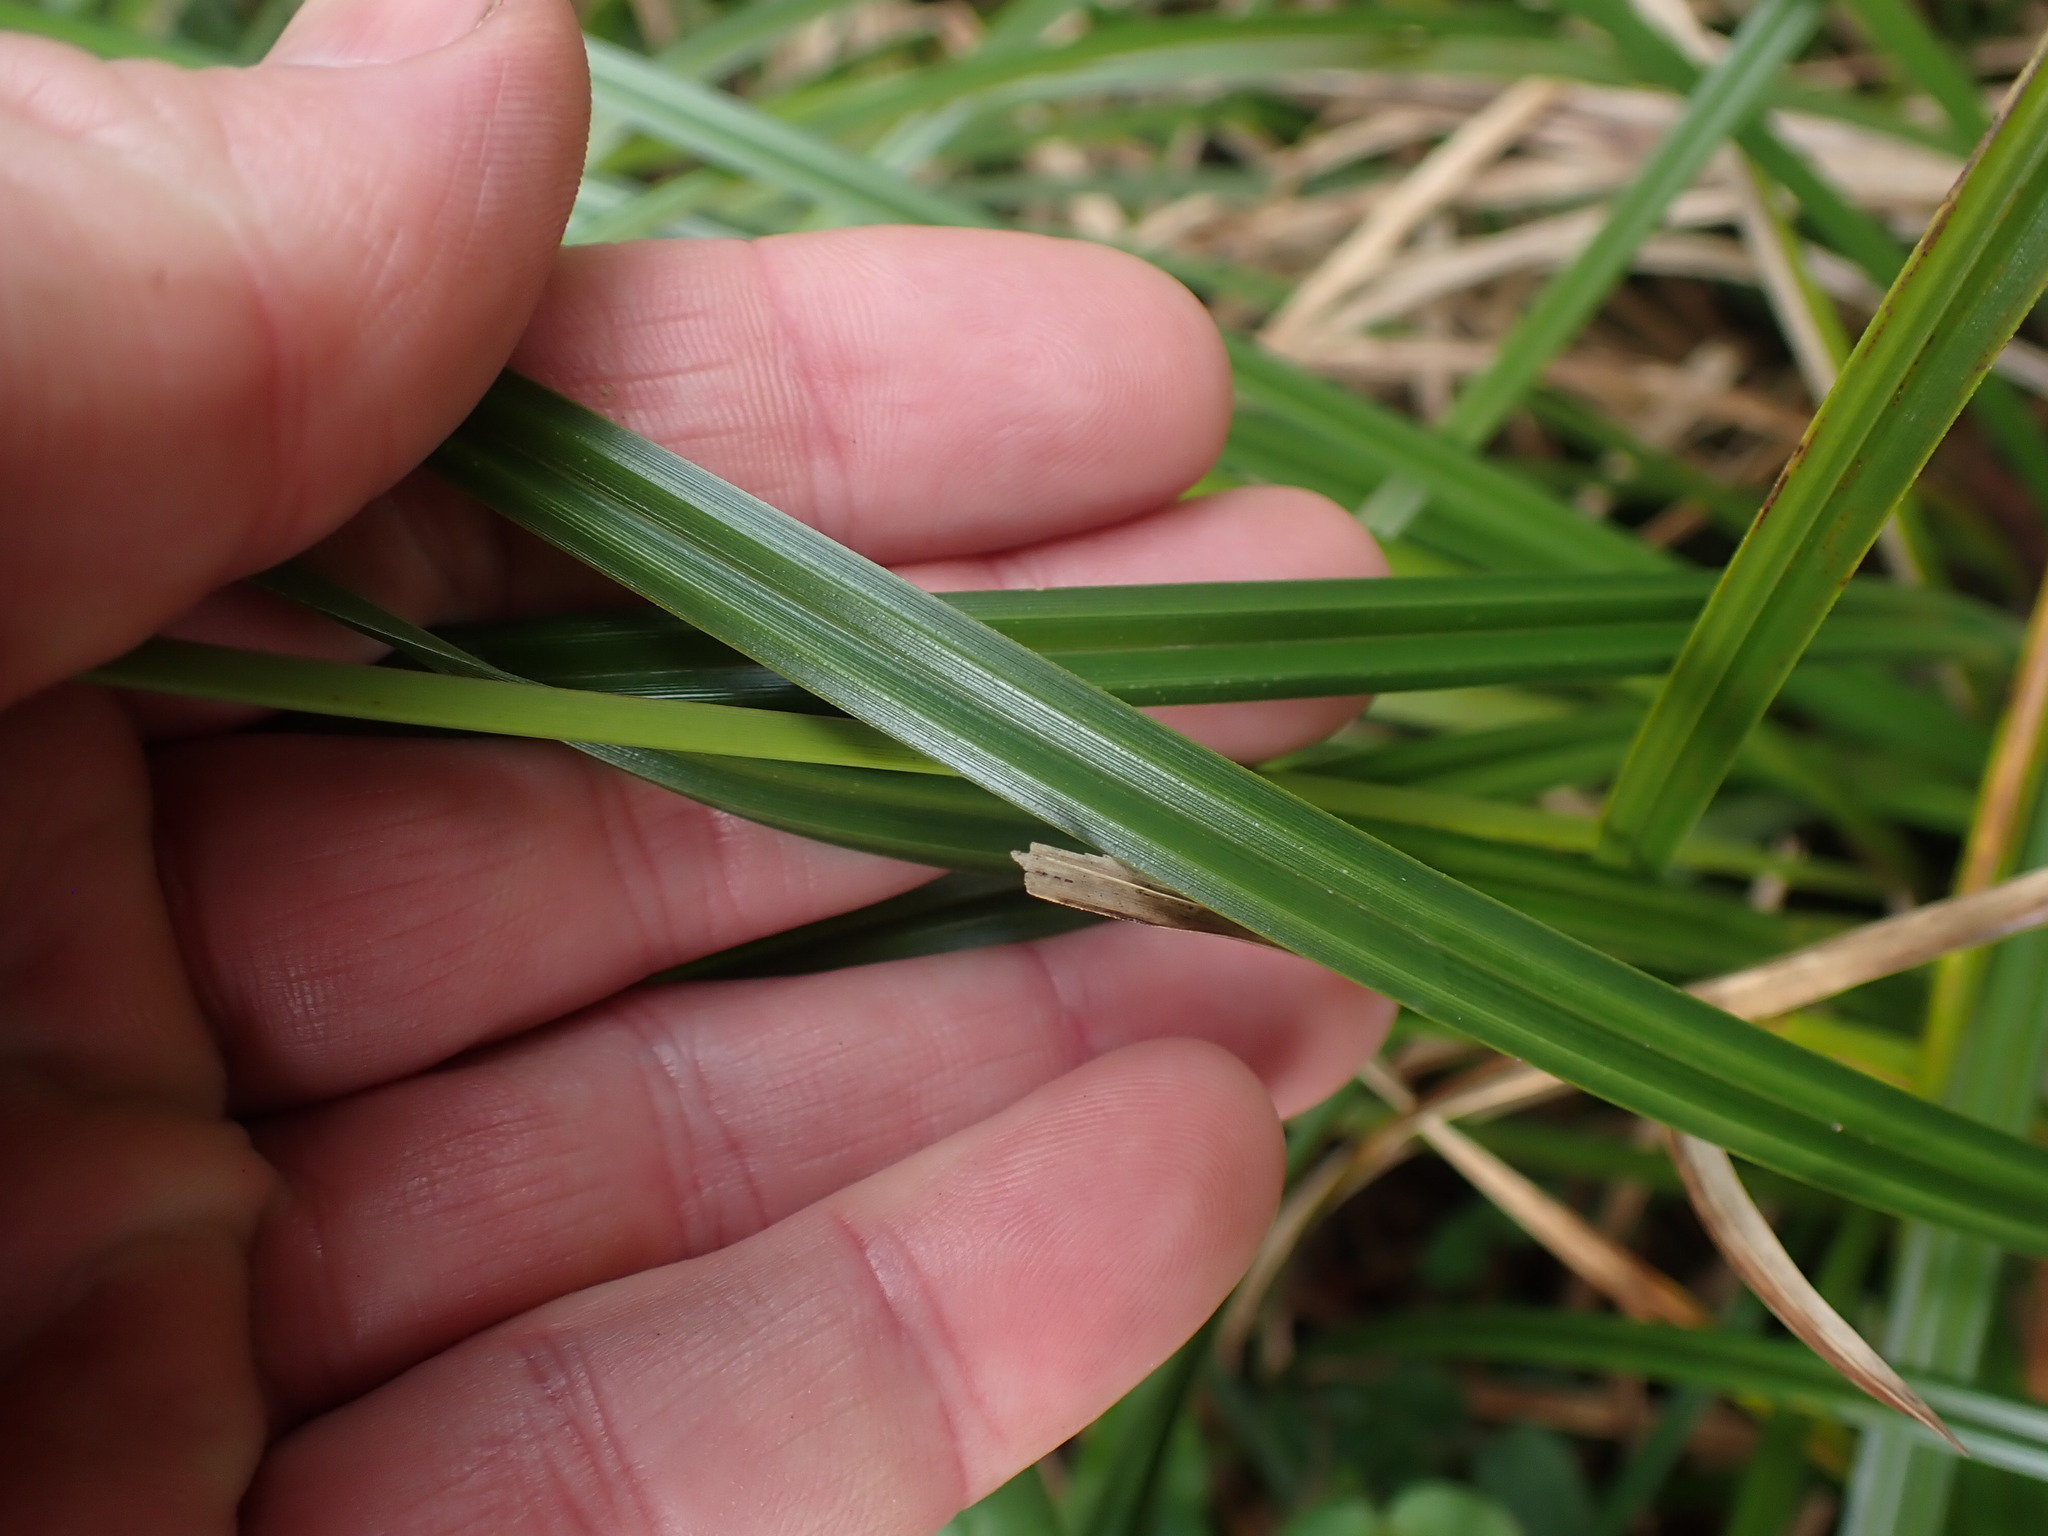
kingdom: Plantae
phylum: Tracheophyta
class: Liliopsida
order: Poales
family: Cyperaceae
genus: Carex
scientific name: Carex obnupta
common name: Slough sedge
